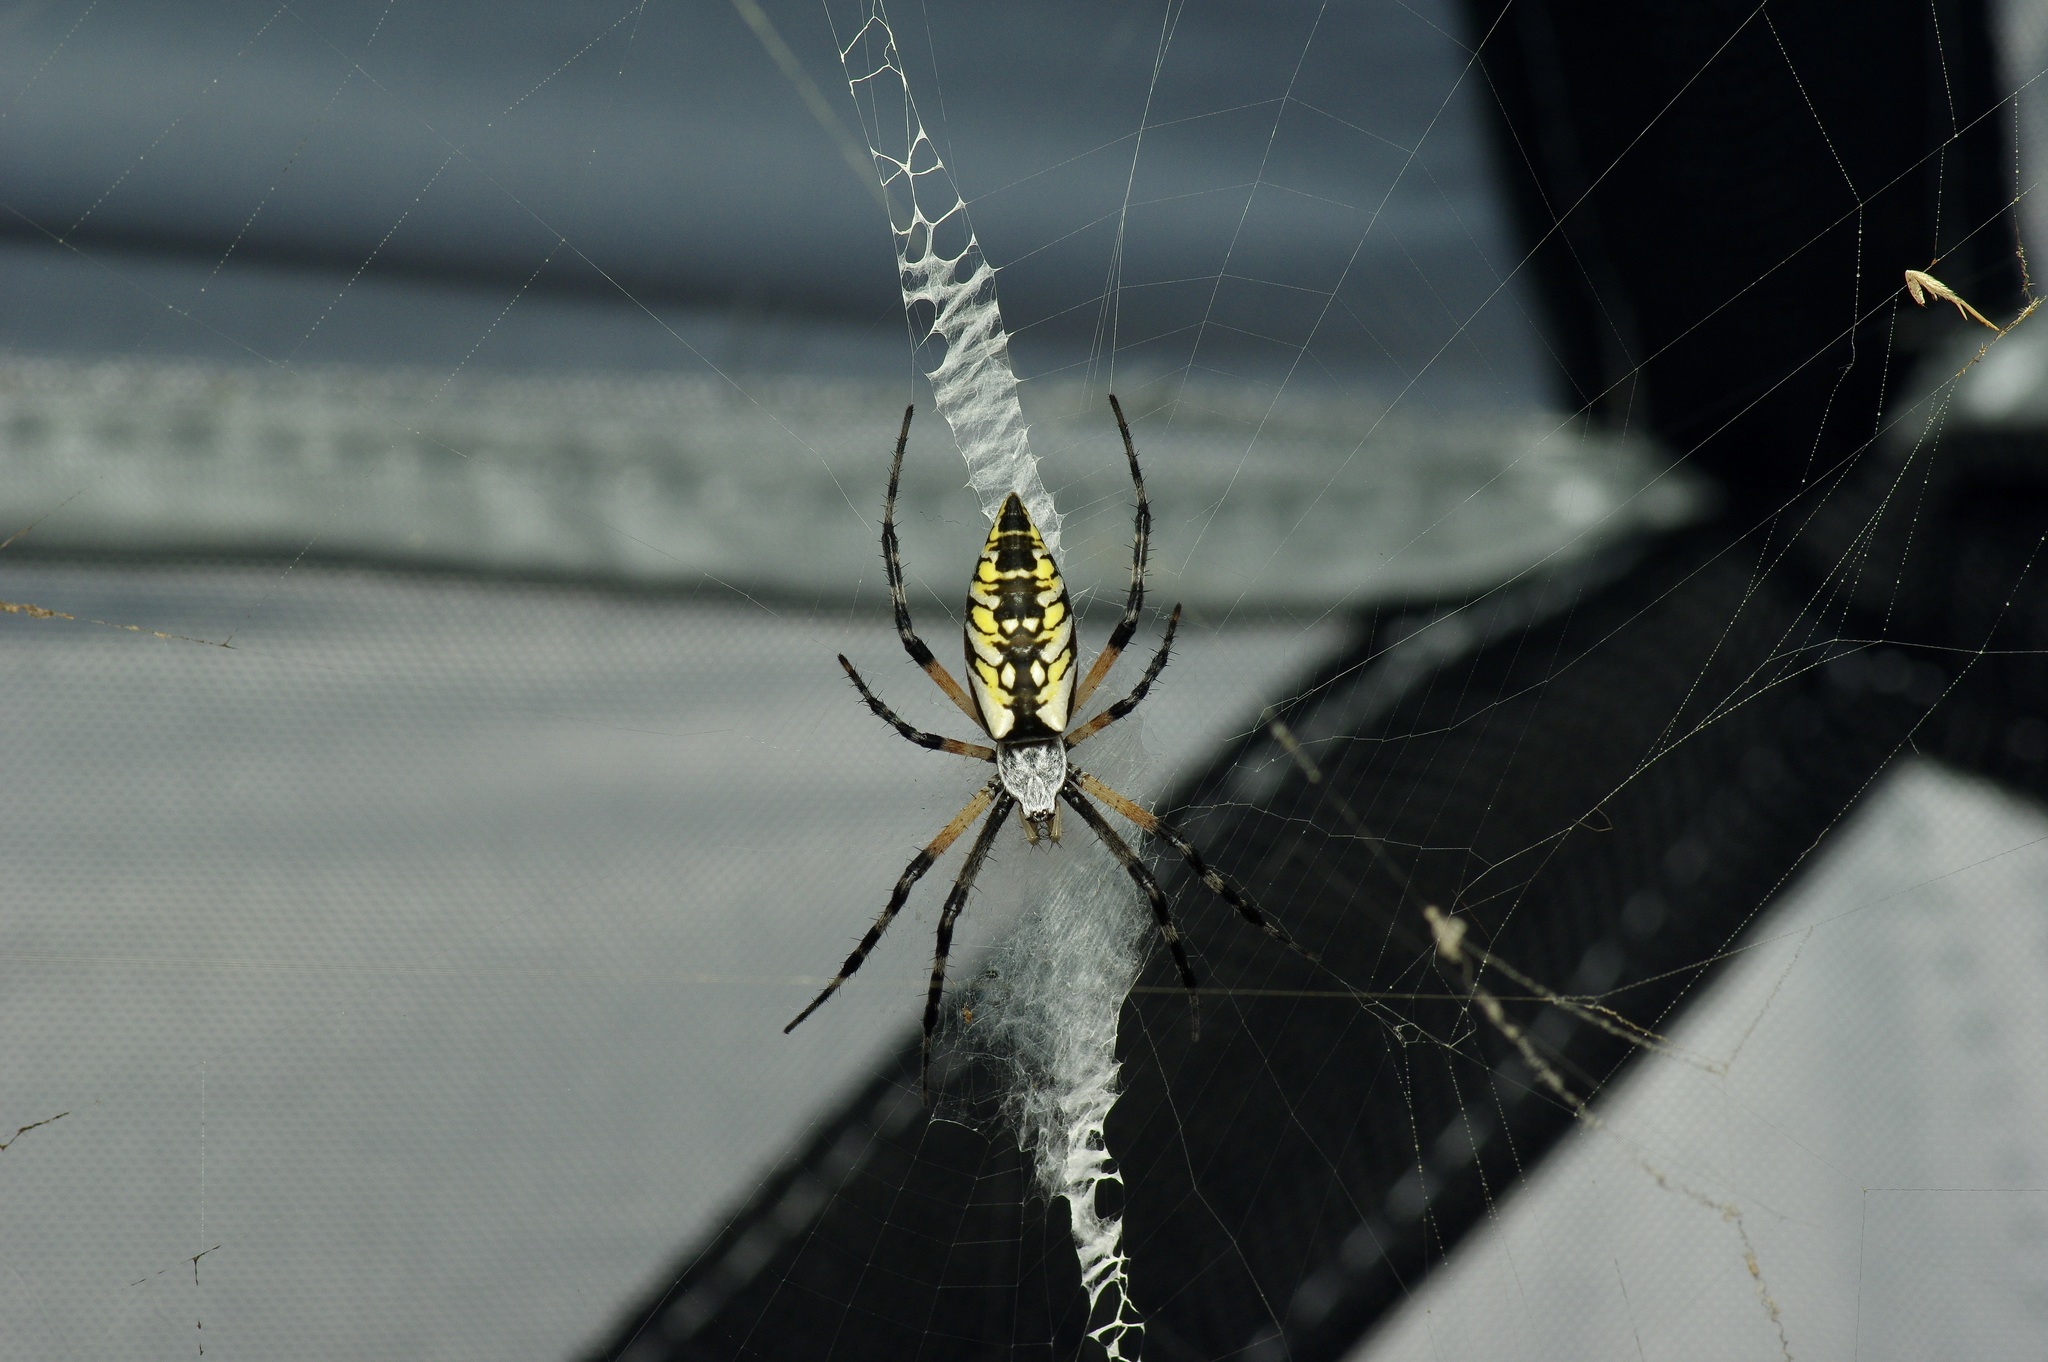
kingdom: Animalia
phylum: Arthropoda
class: Arachnida
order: Araneae
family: Araneidae
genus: Argiope
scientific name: Argiope aurantia
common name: Orb weavers
